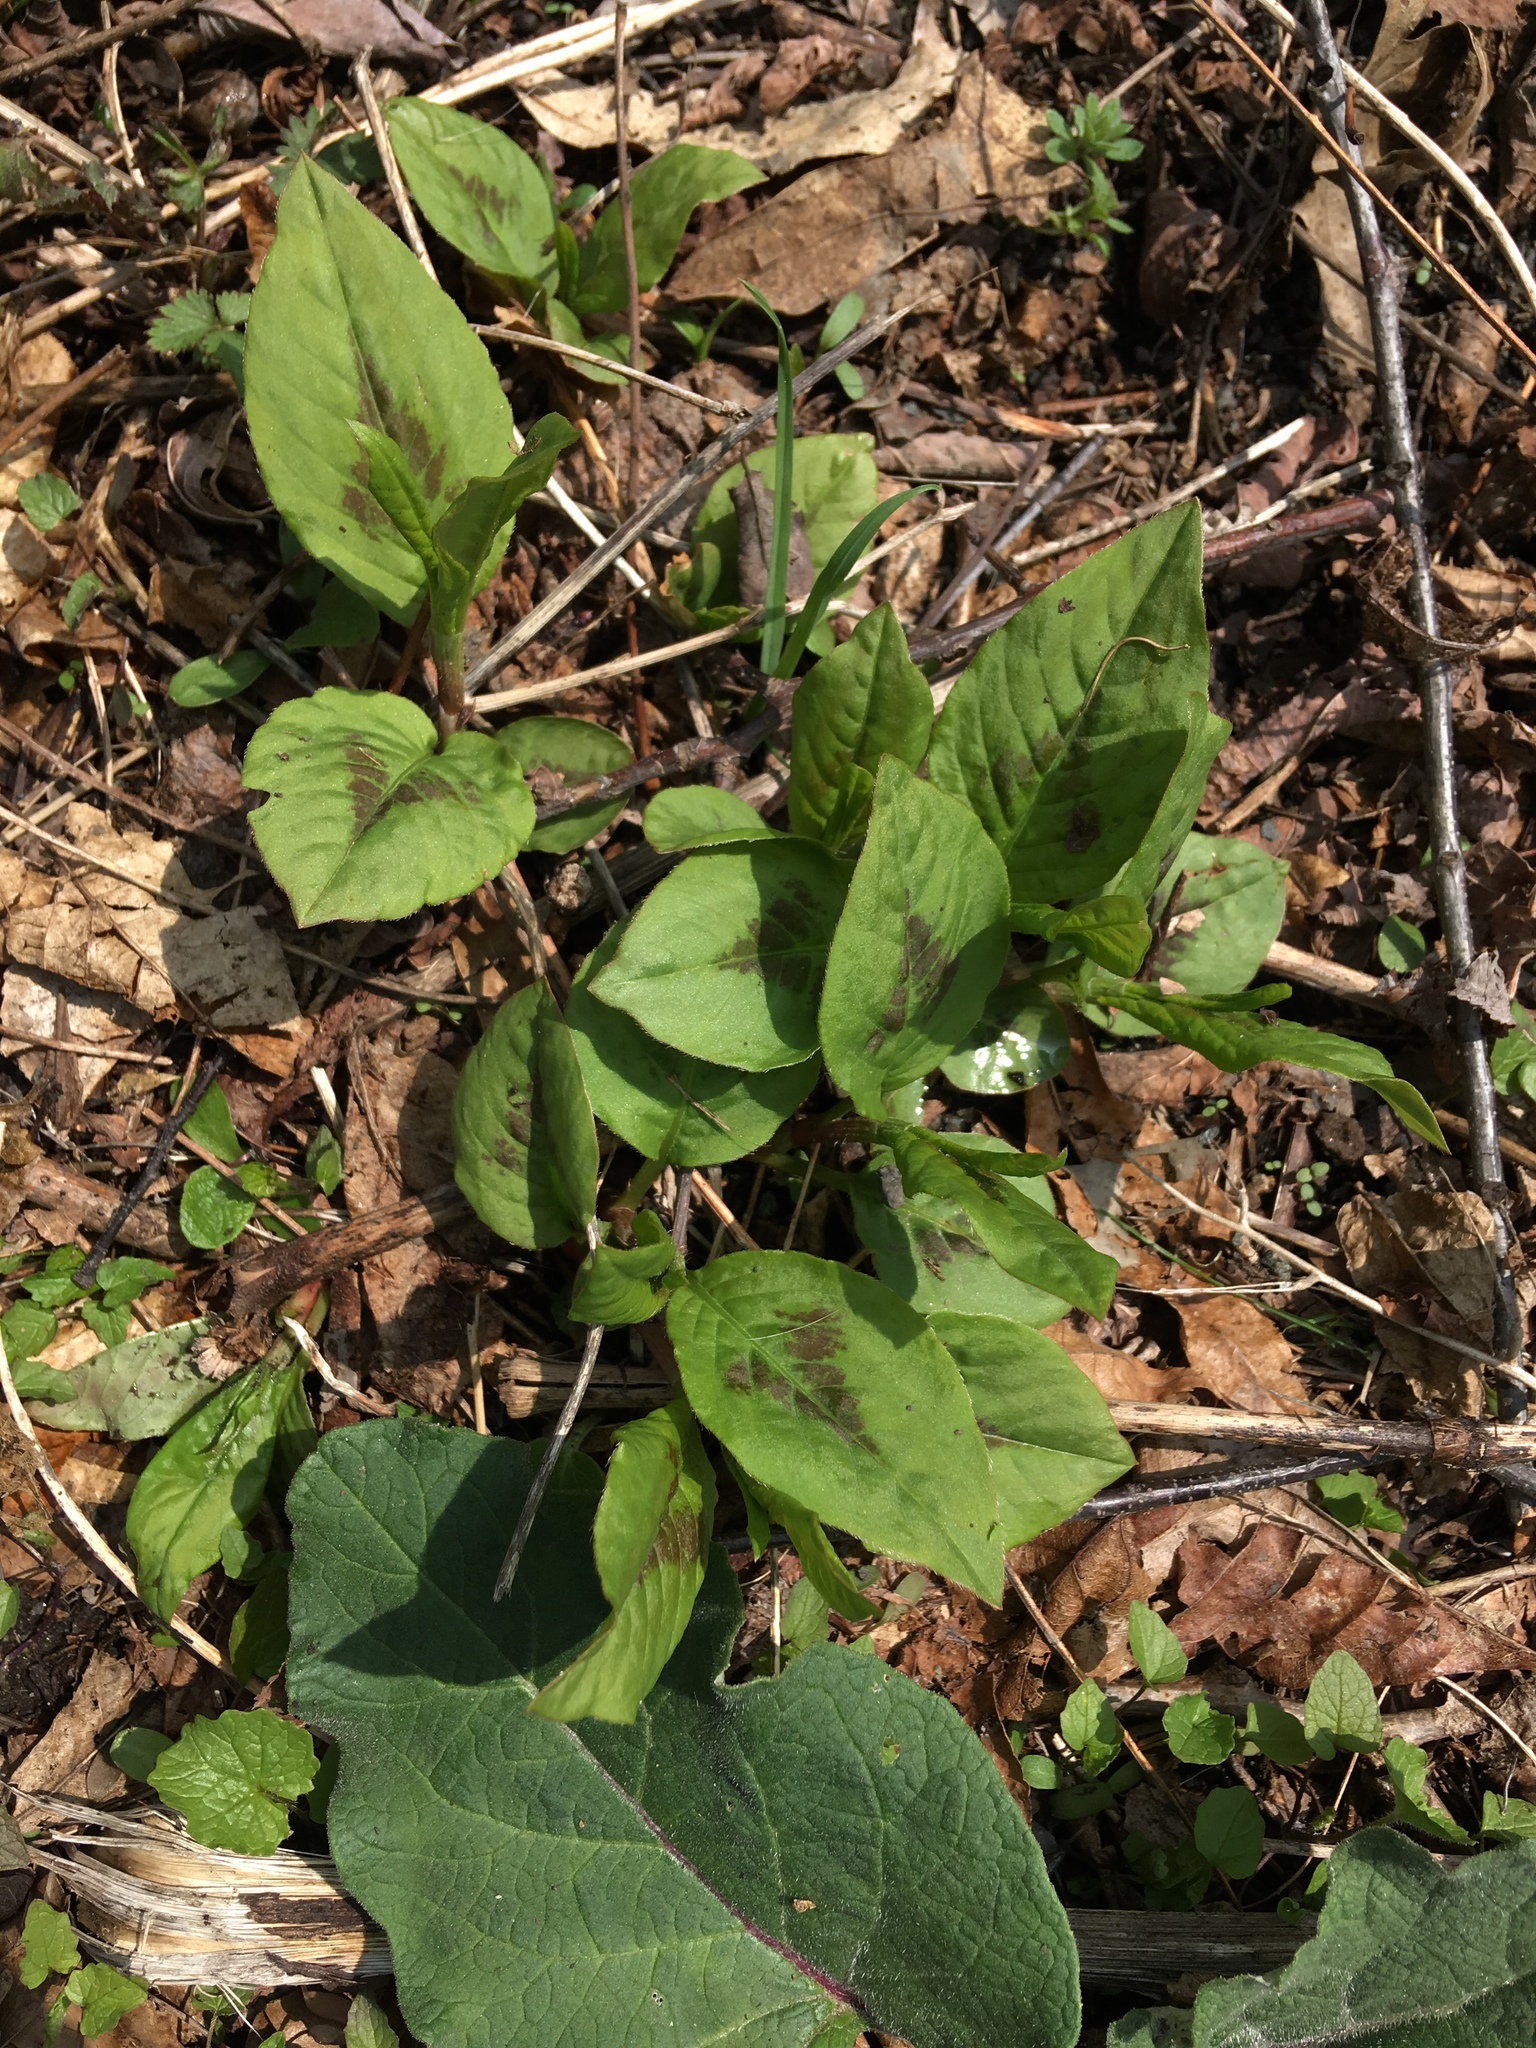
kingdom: Plantae
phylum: Tracheophyta
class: Magnoliopsida
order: Caryophyllales
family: Polygonaceae
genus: Persicaria
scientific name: Persicaria virginiana
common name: Jumpseed
